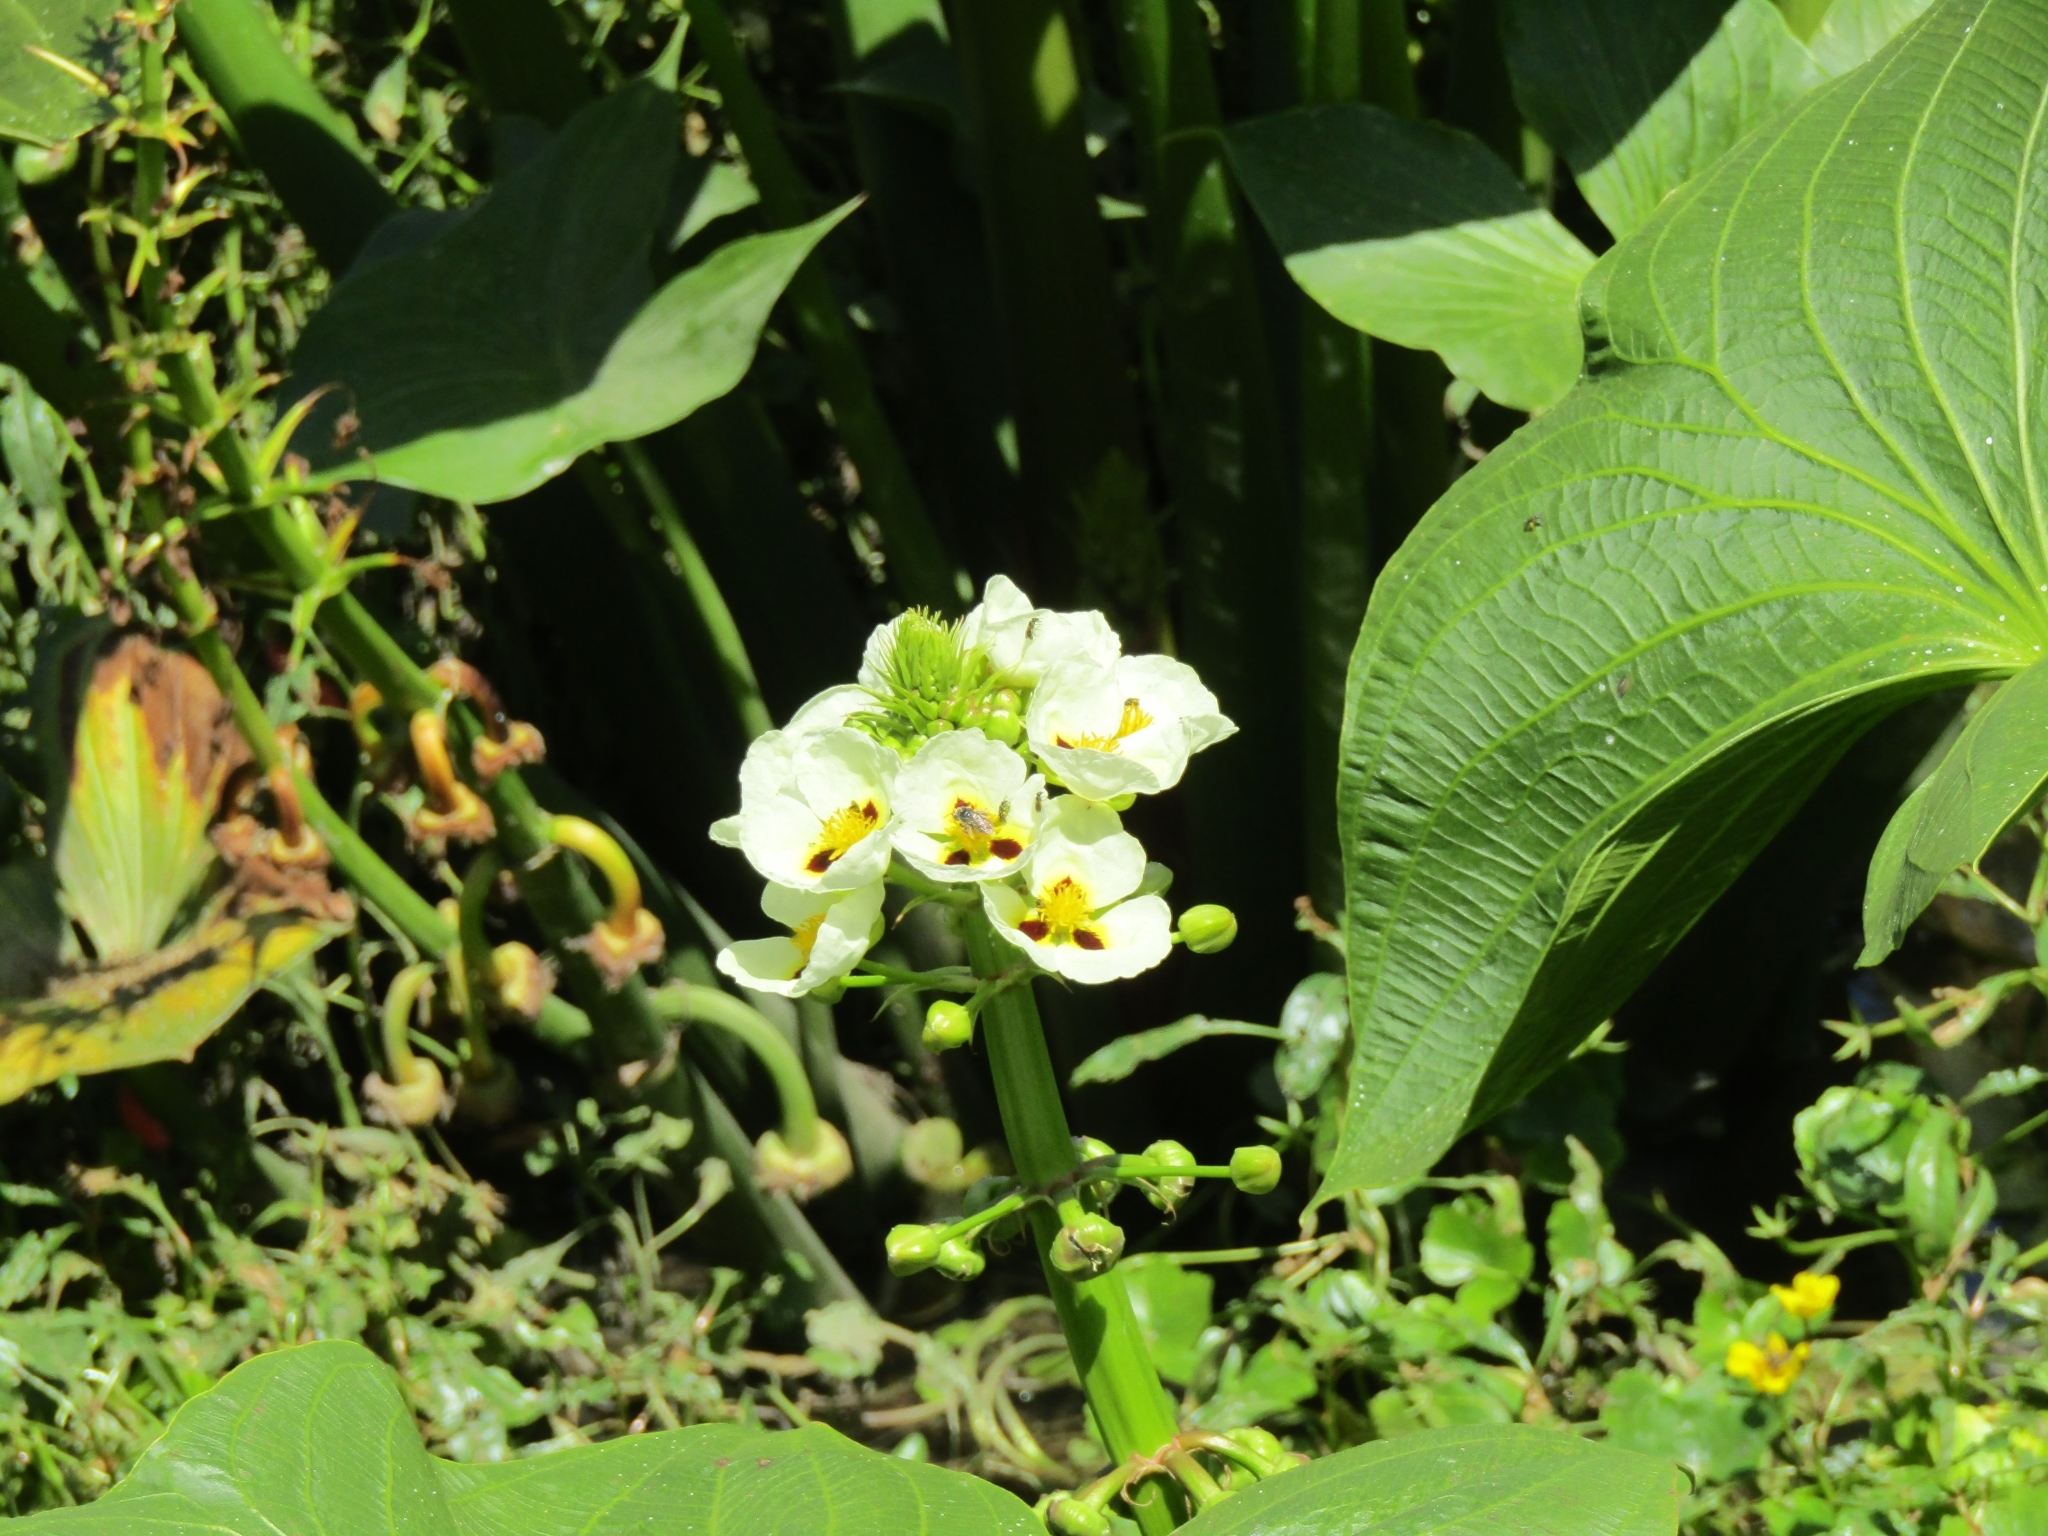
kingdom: Plantae
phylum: Tracheophyta
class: Liliopsida
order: Alismatales
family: Alismataceae
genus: Sagittaria
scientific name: Sagittaria montevidensis
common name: Giant arrowhead
